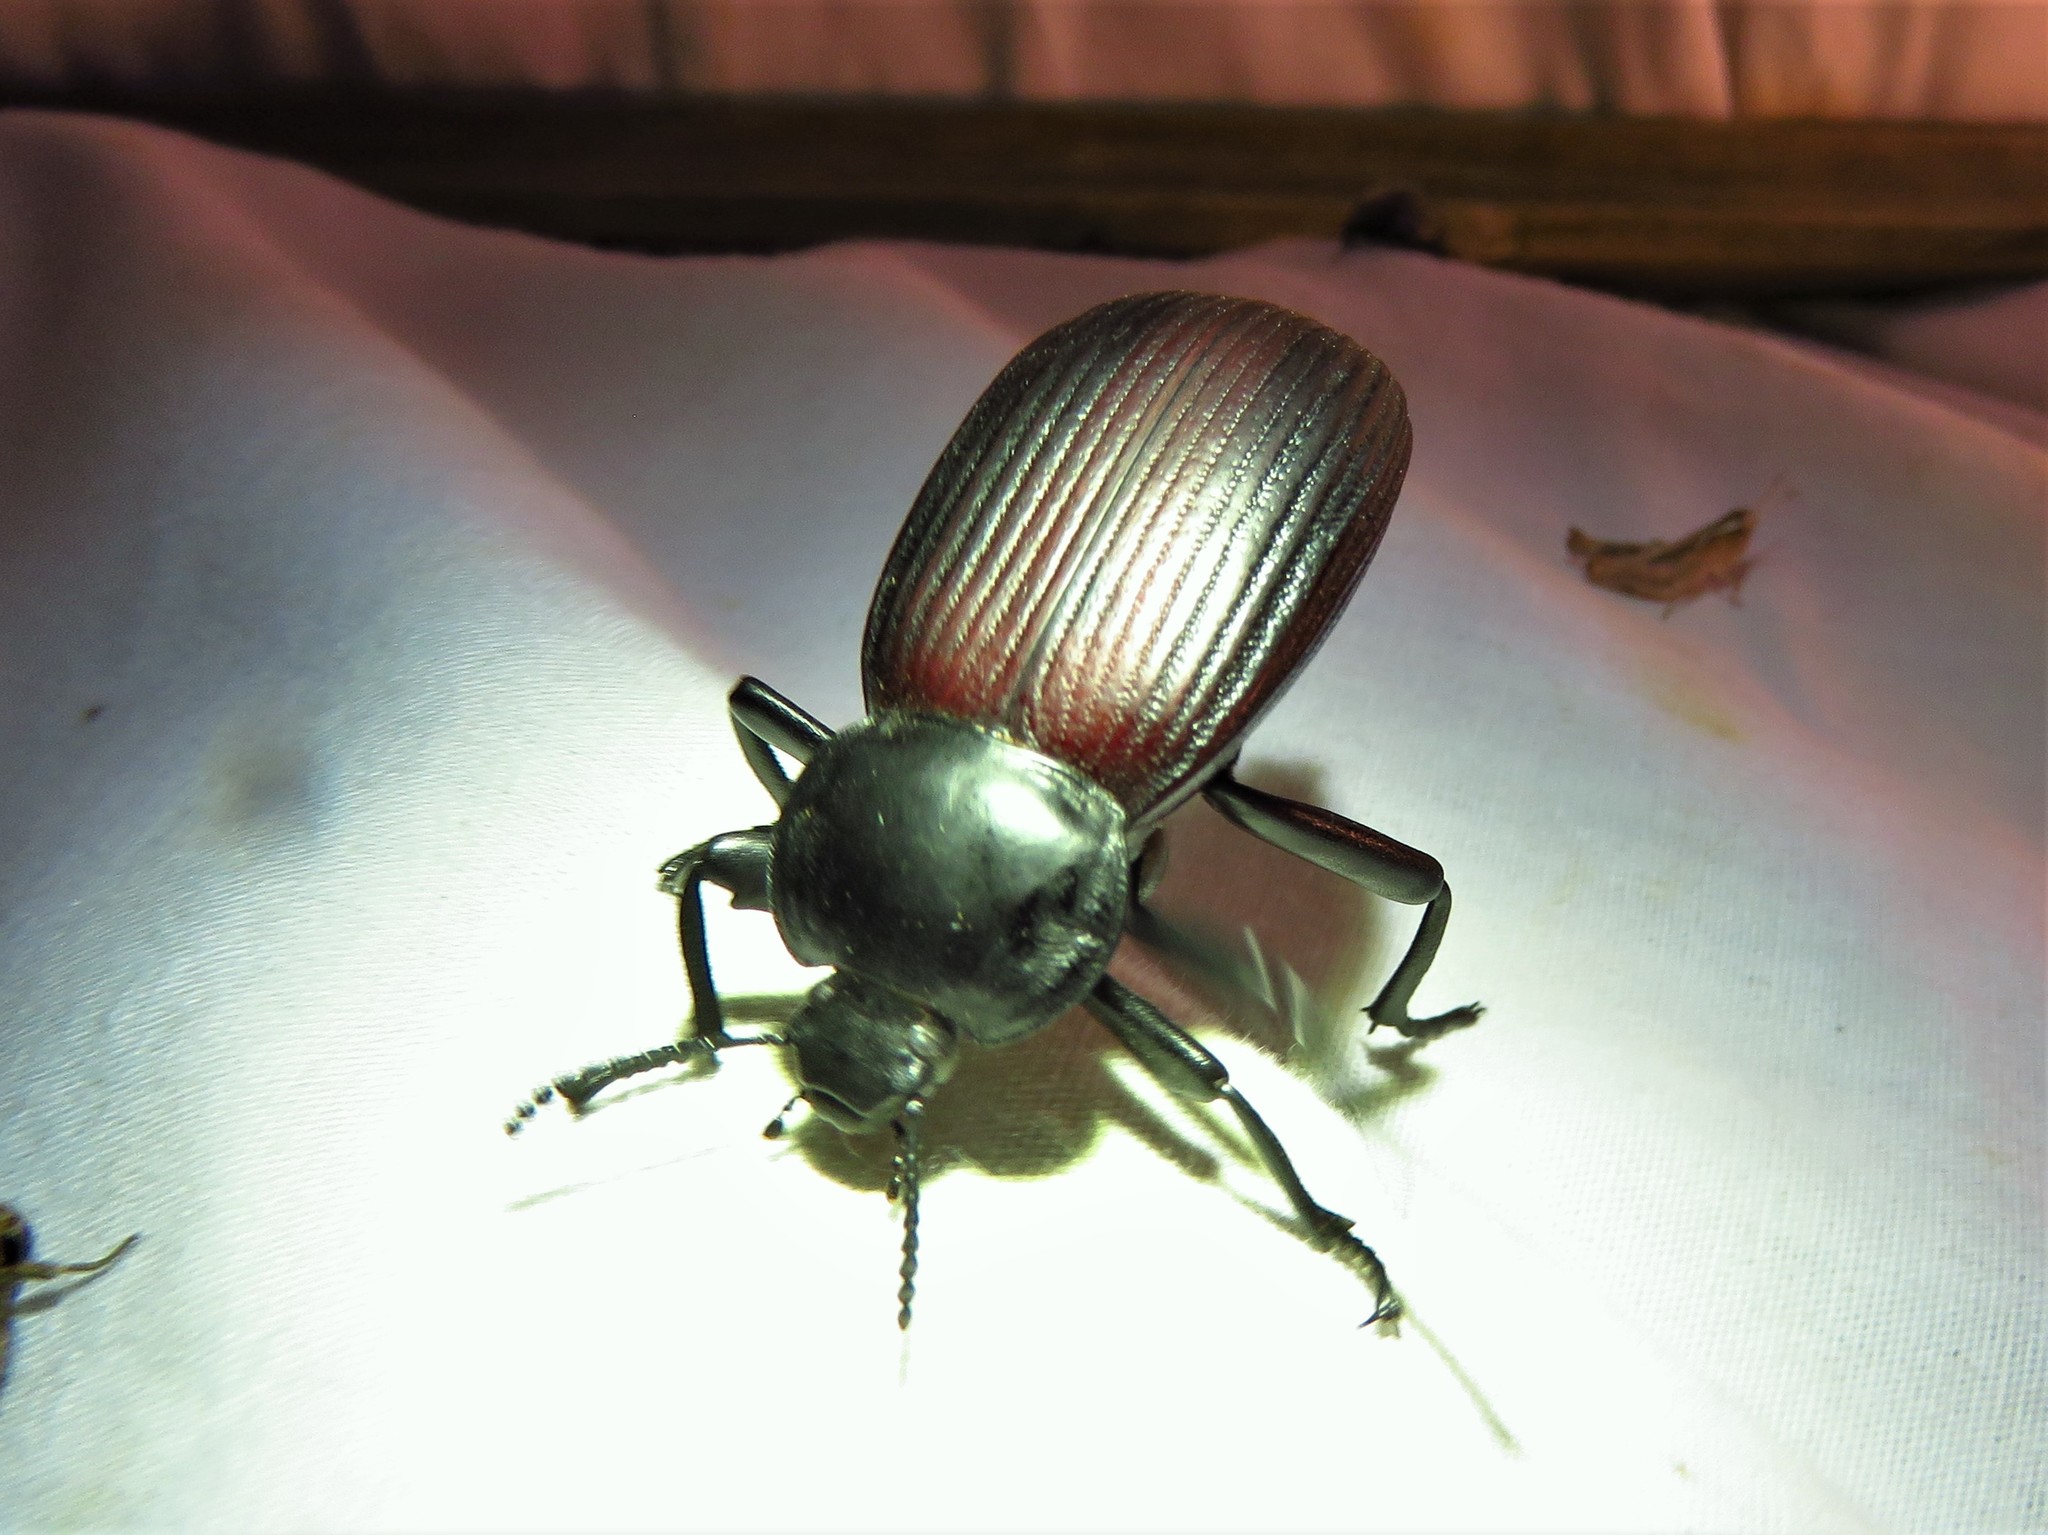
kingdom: Animalia
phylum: Arthropoda
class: Insecta
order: Coleoptera
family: Tenebrionidae
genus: Eleodes
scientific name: Eleodes acuta
